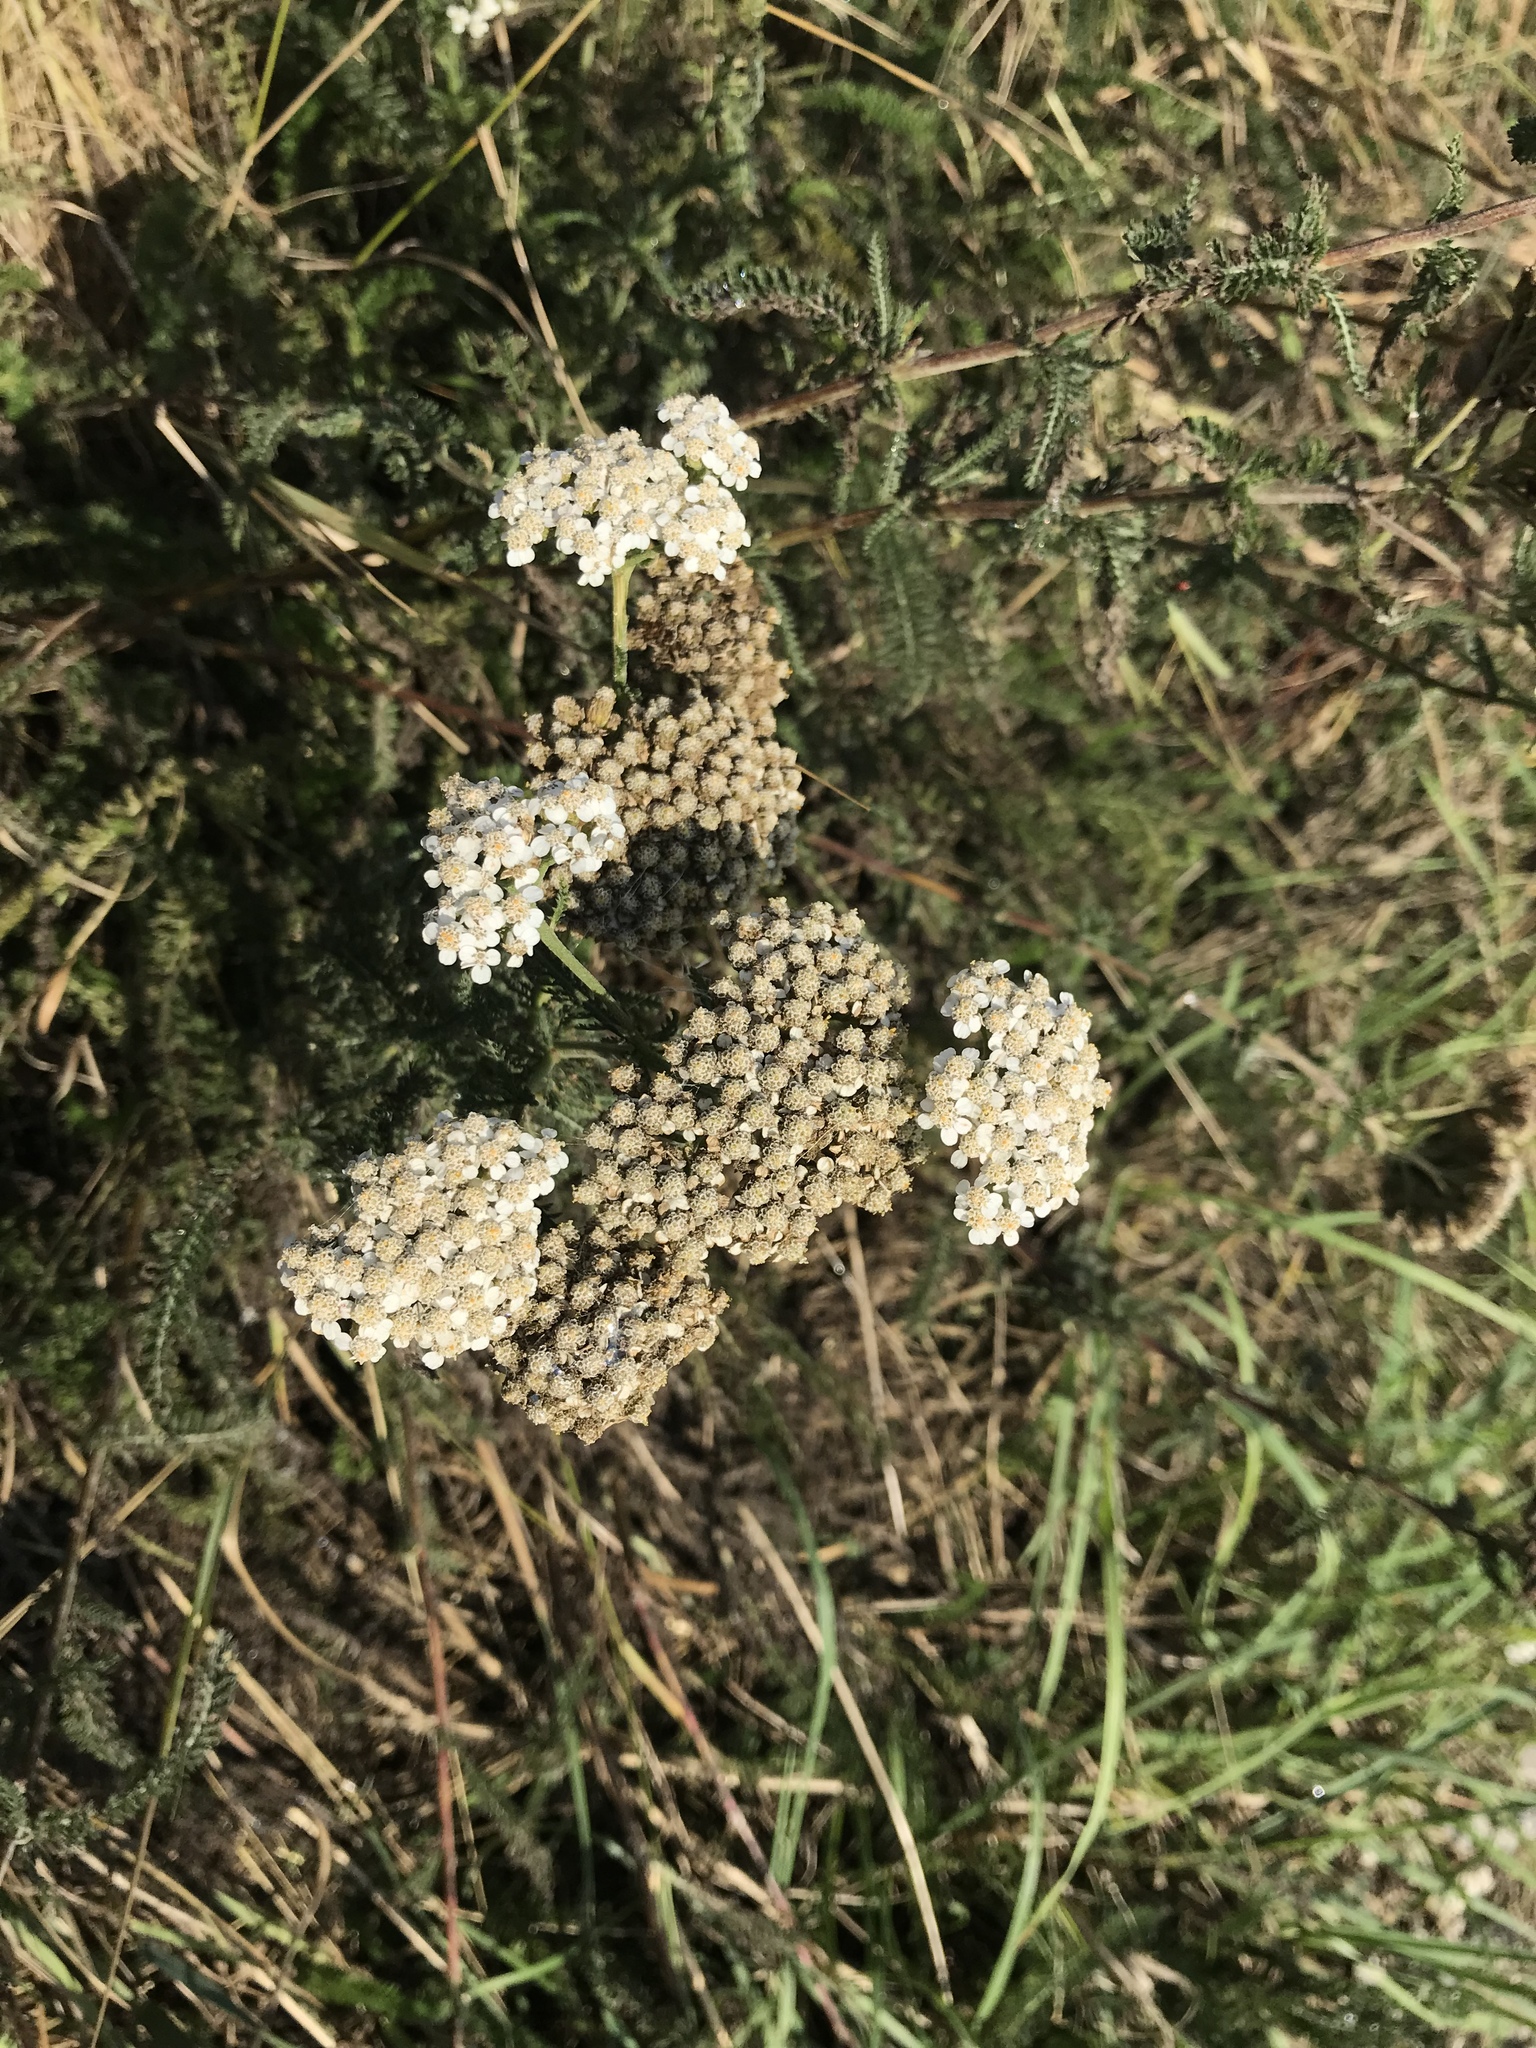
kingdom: Plantae
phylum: Tracheophyta
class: Magnoliopsida
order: Asterales
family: Asteraceae
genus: Achillea
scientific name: Achillea millefolium
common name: Yarrow
